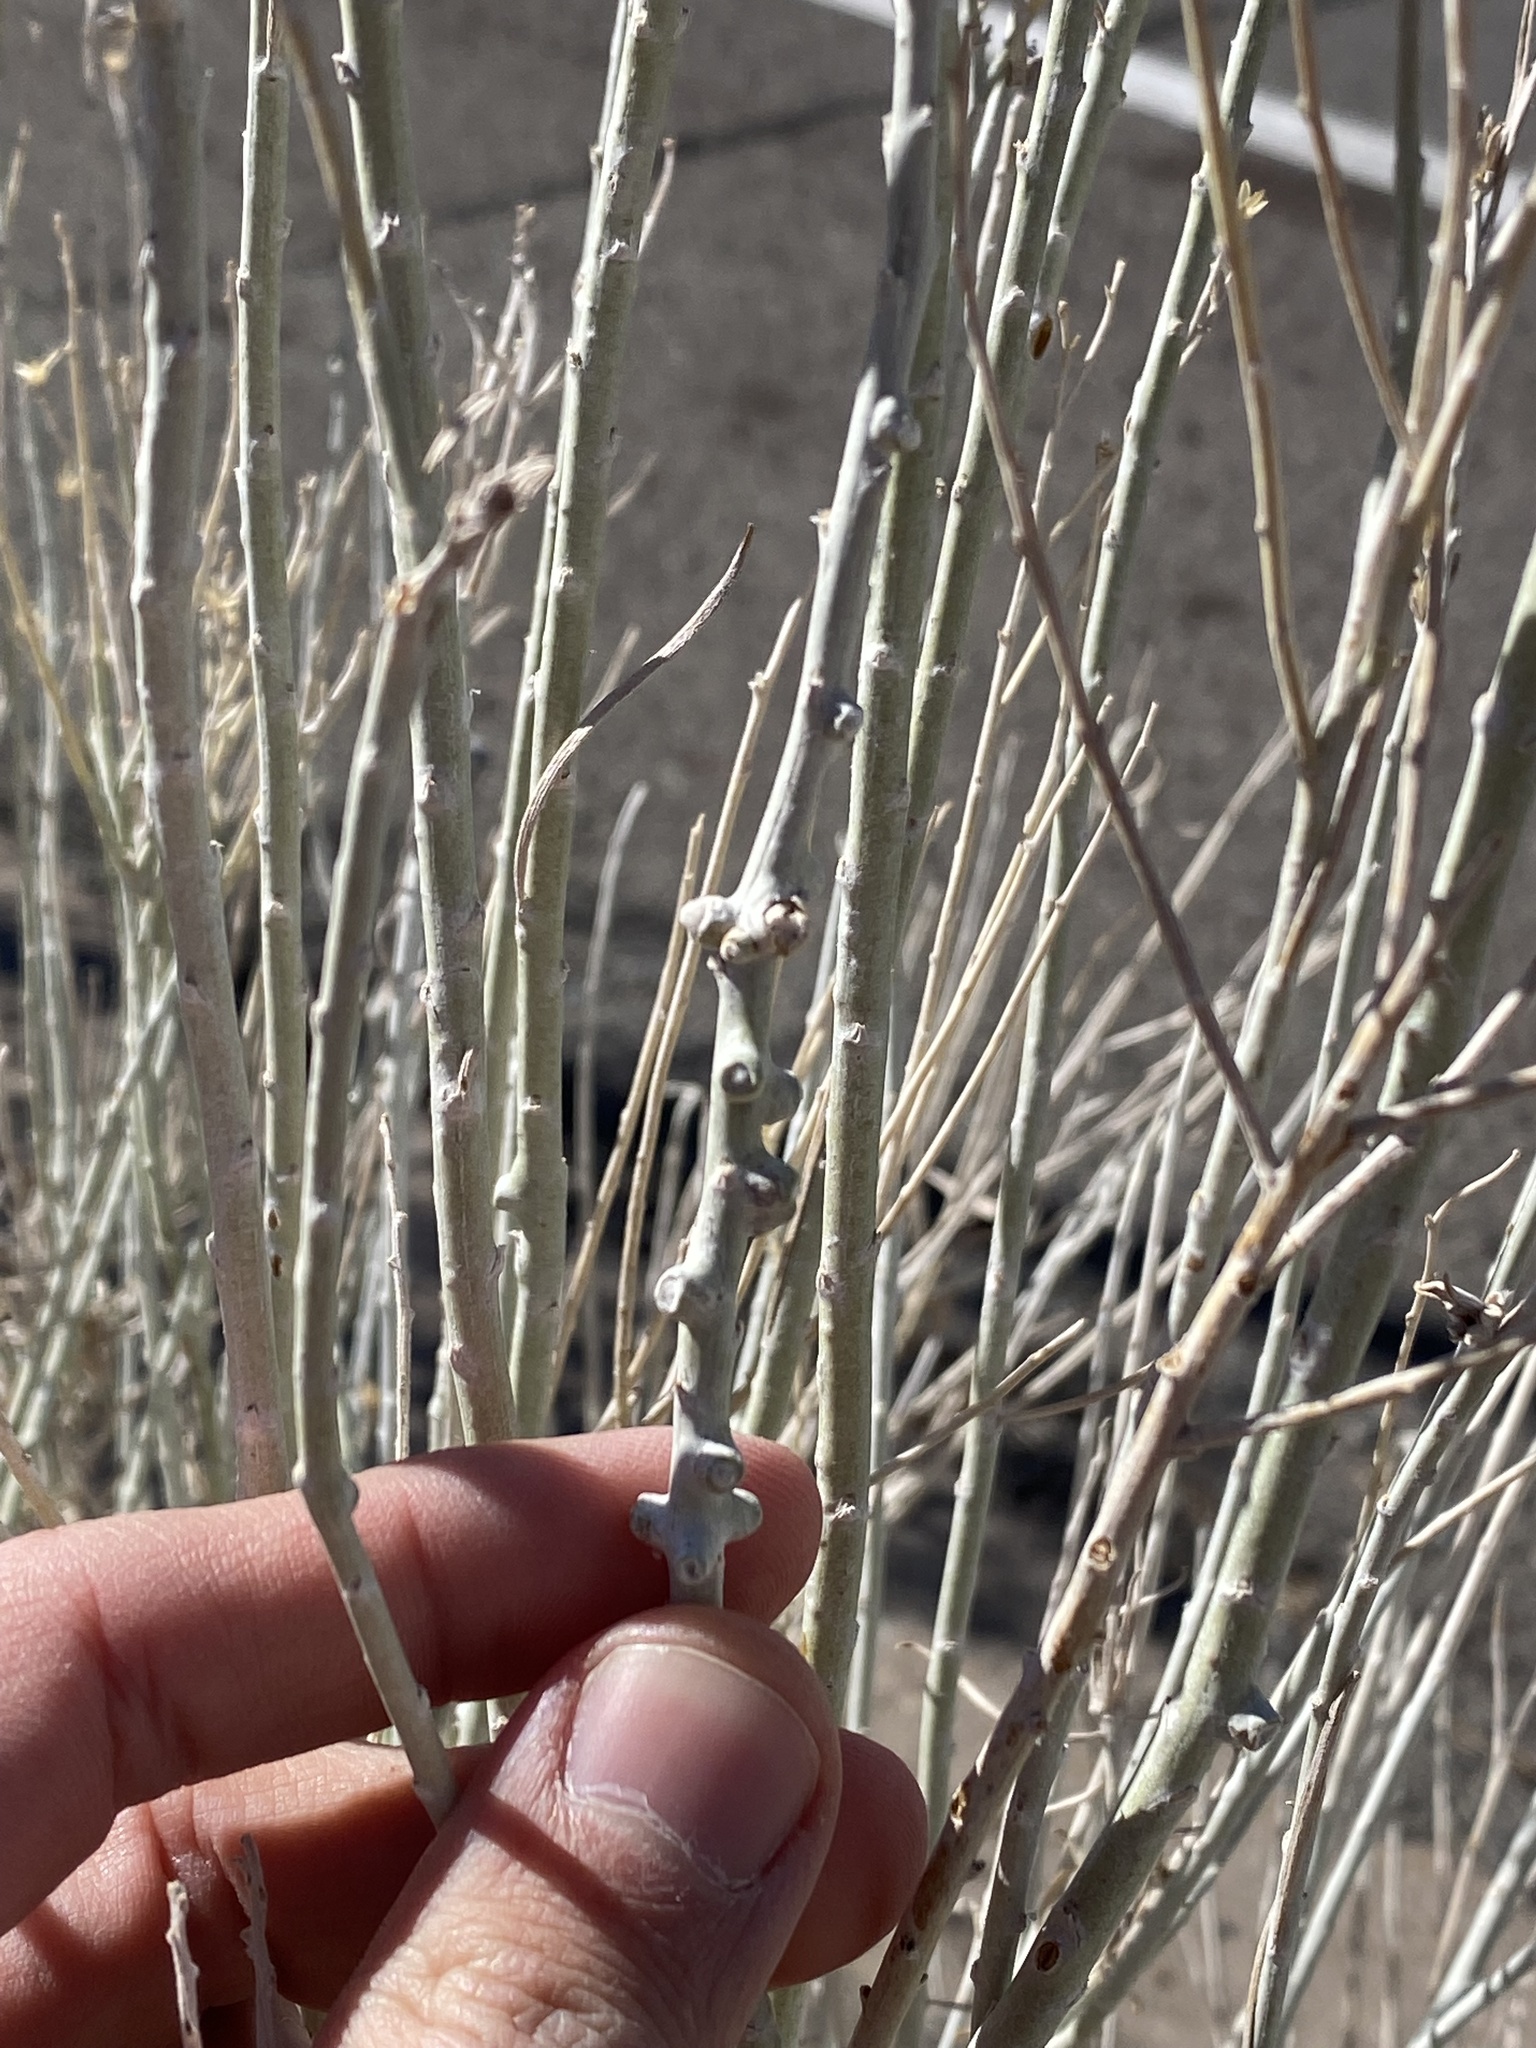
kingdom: Animalia
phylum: Arthropoda
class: Insecta
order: Diptera
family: Cecidomyiidae
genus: Rhopalomyia
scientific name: Rhopalomyia chrysothamni
